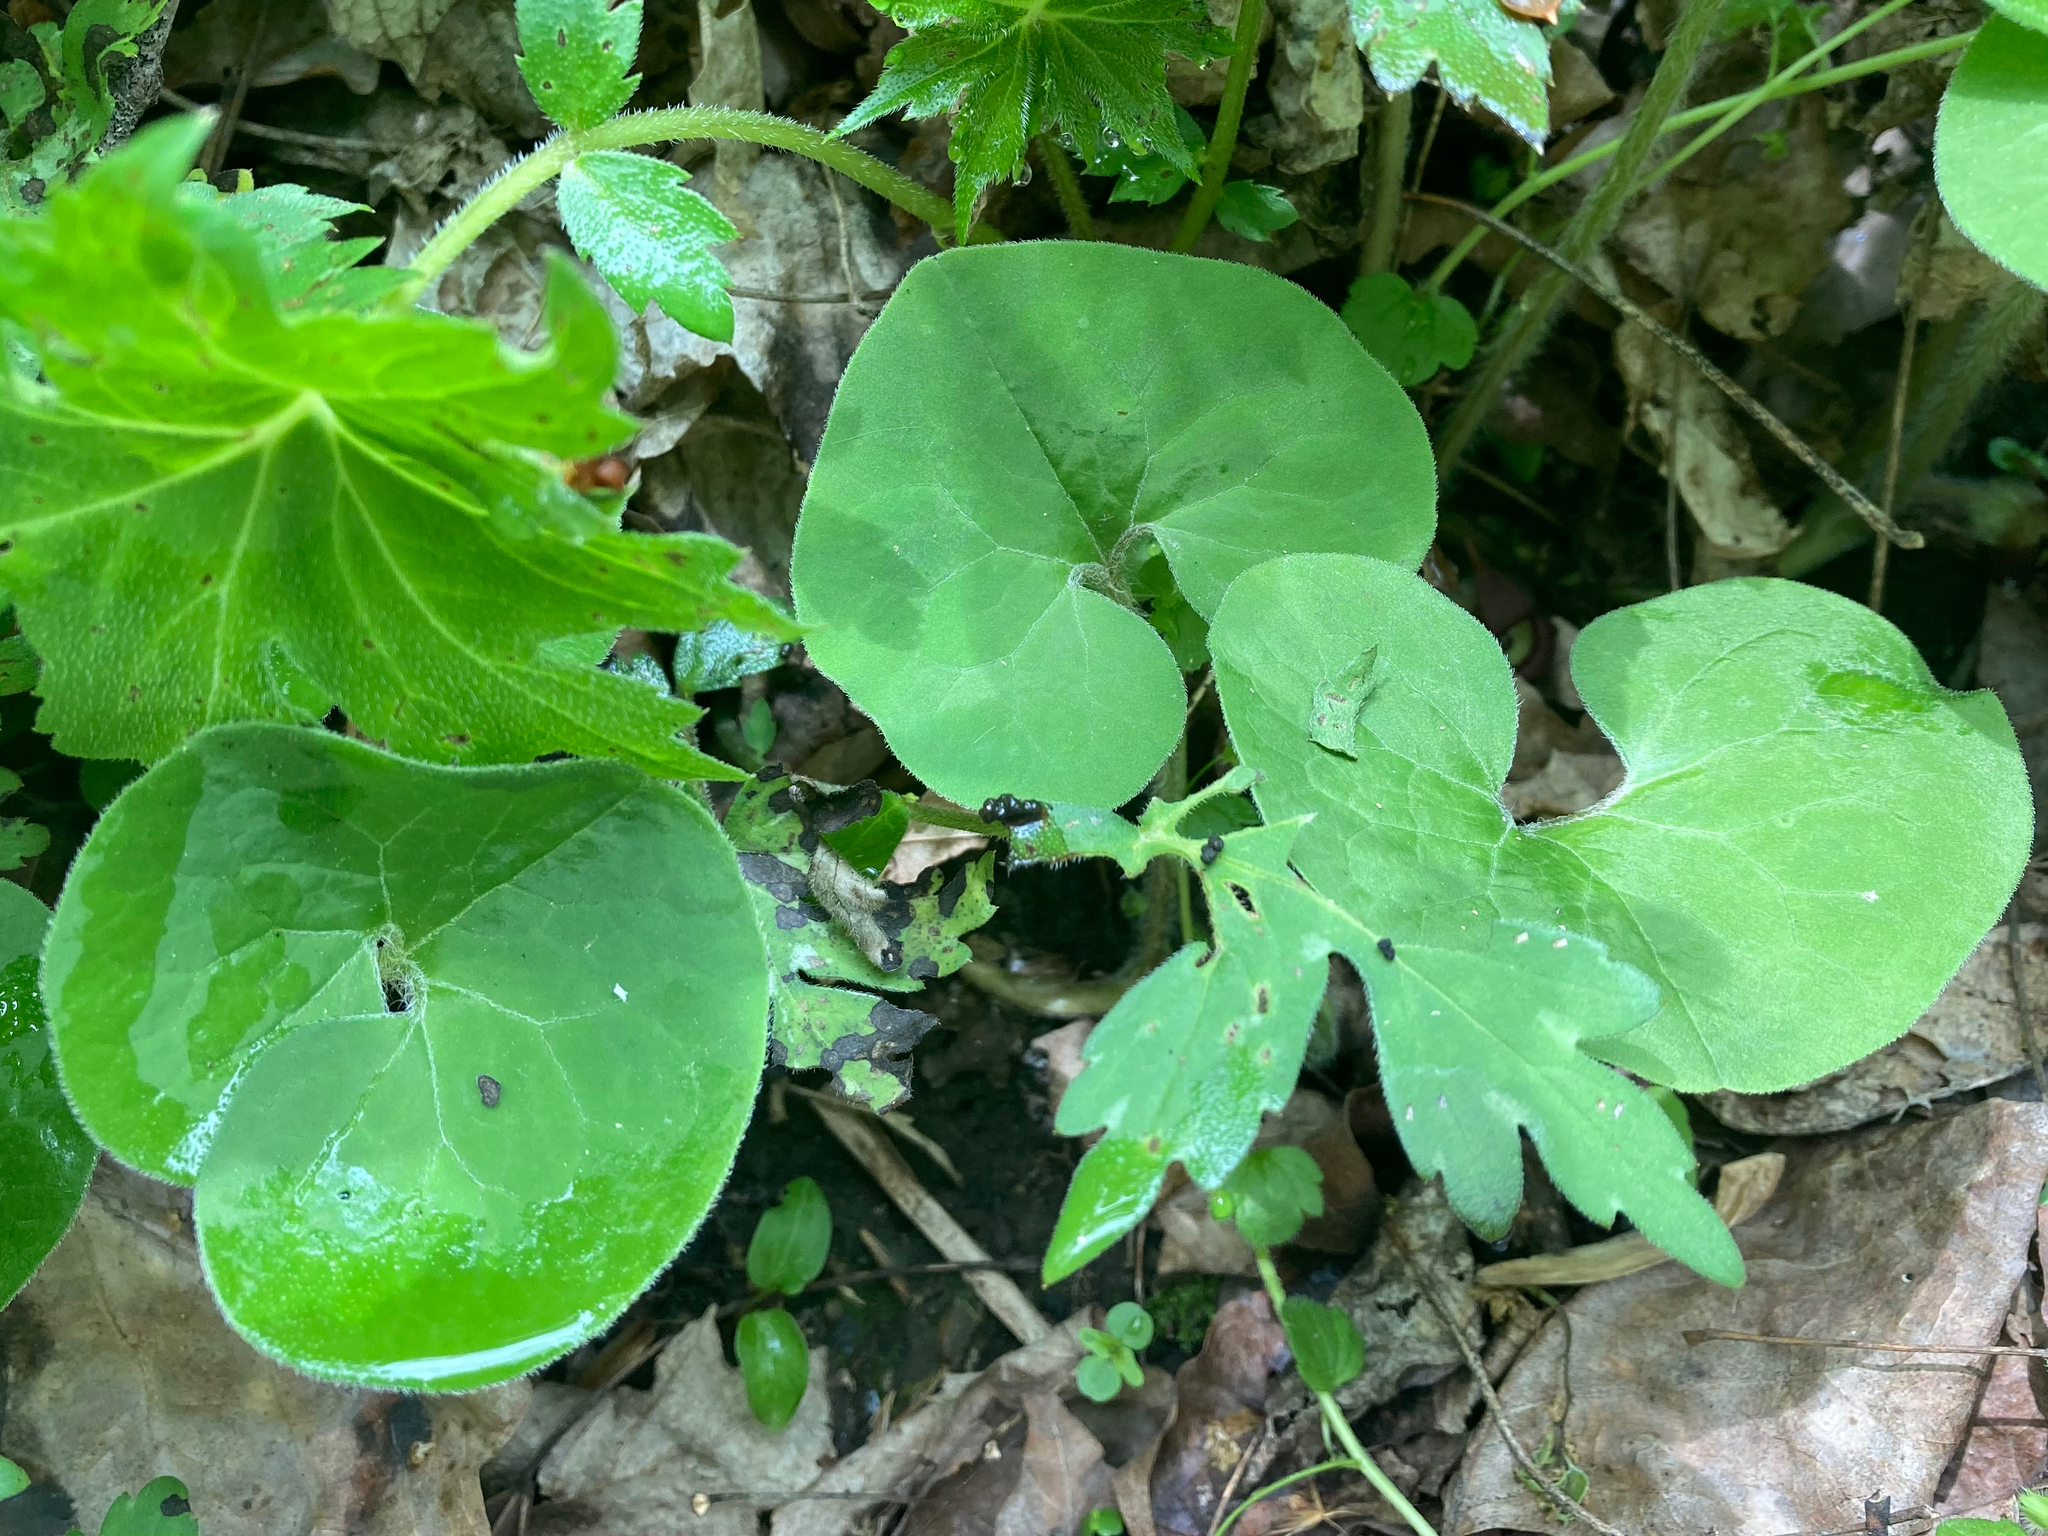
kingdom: Plantae
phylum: Tracheophyta
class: Magnoliopsida
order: Piperales
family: Aristolochiaceae
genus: Asarum
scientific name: Asarum canadense
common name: Wild ginger
